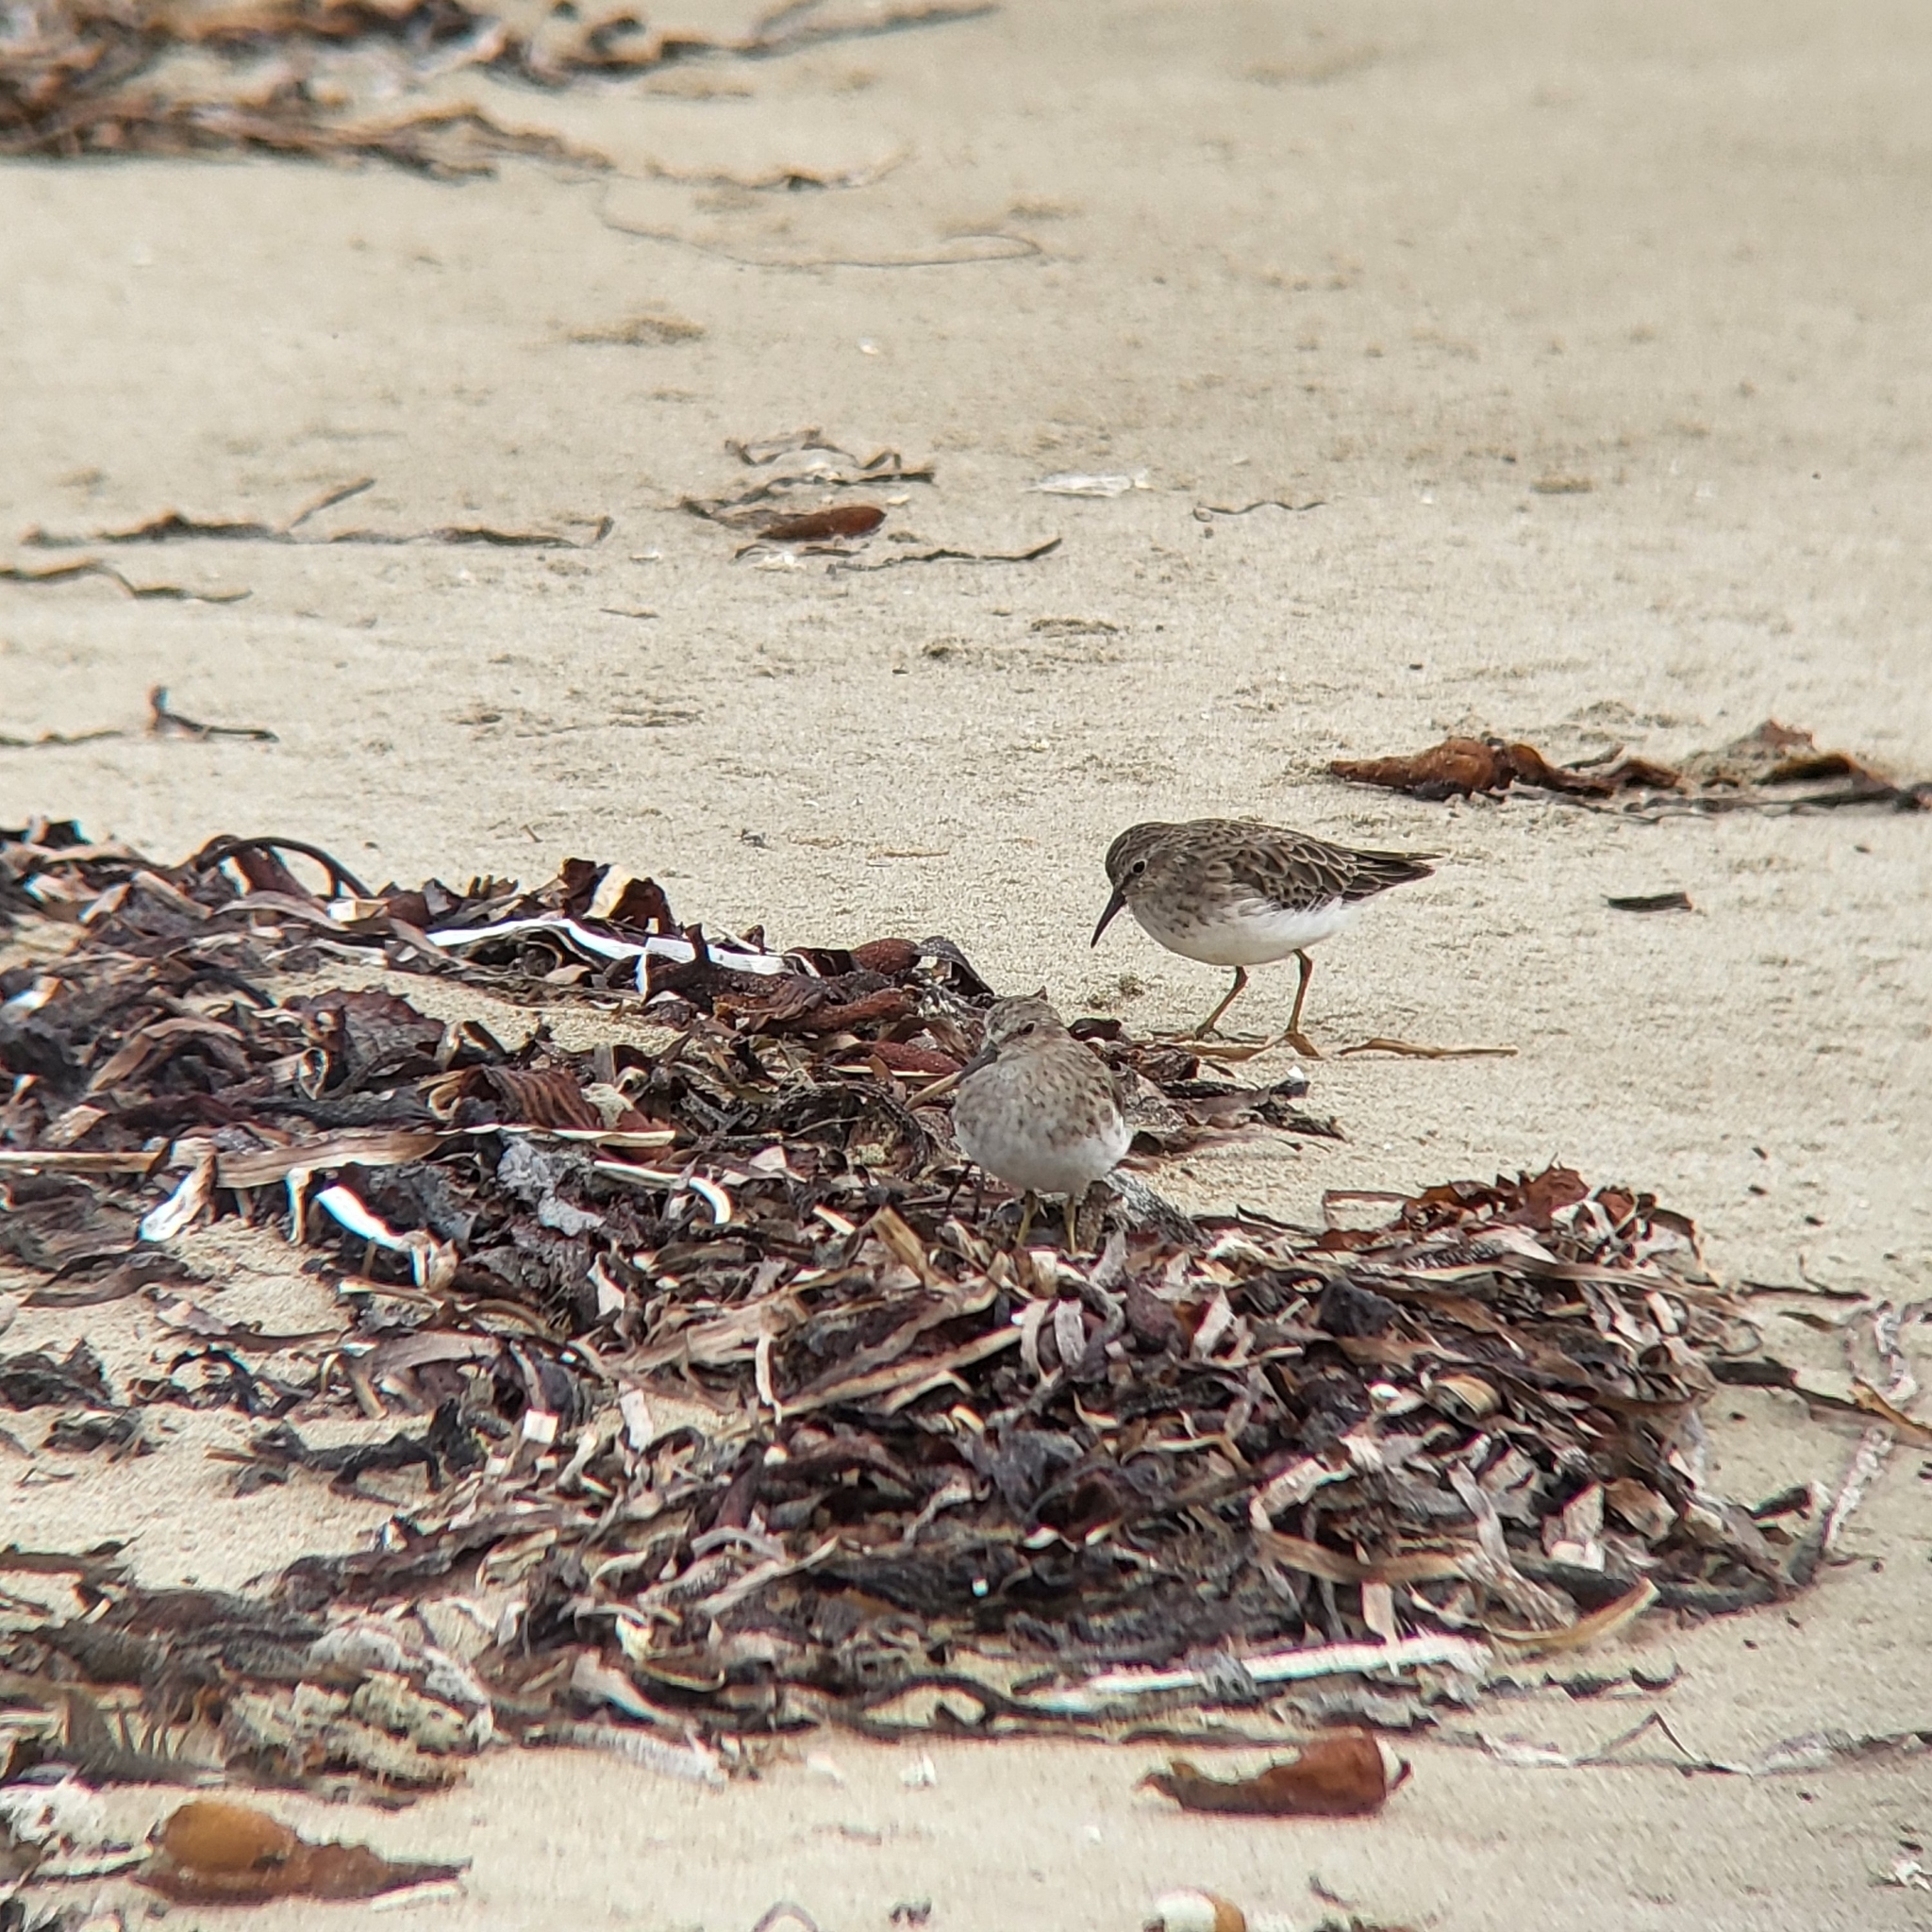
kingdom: Animalia
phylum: Chordata
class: Aves
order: Charadriiformes
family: Scolopacidae
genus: Calidris
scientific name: Calidris minutilla
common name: Least sandpiper
